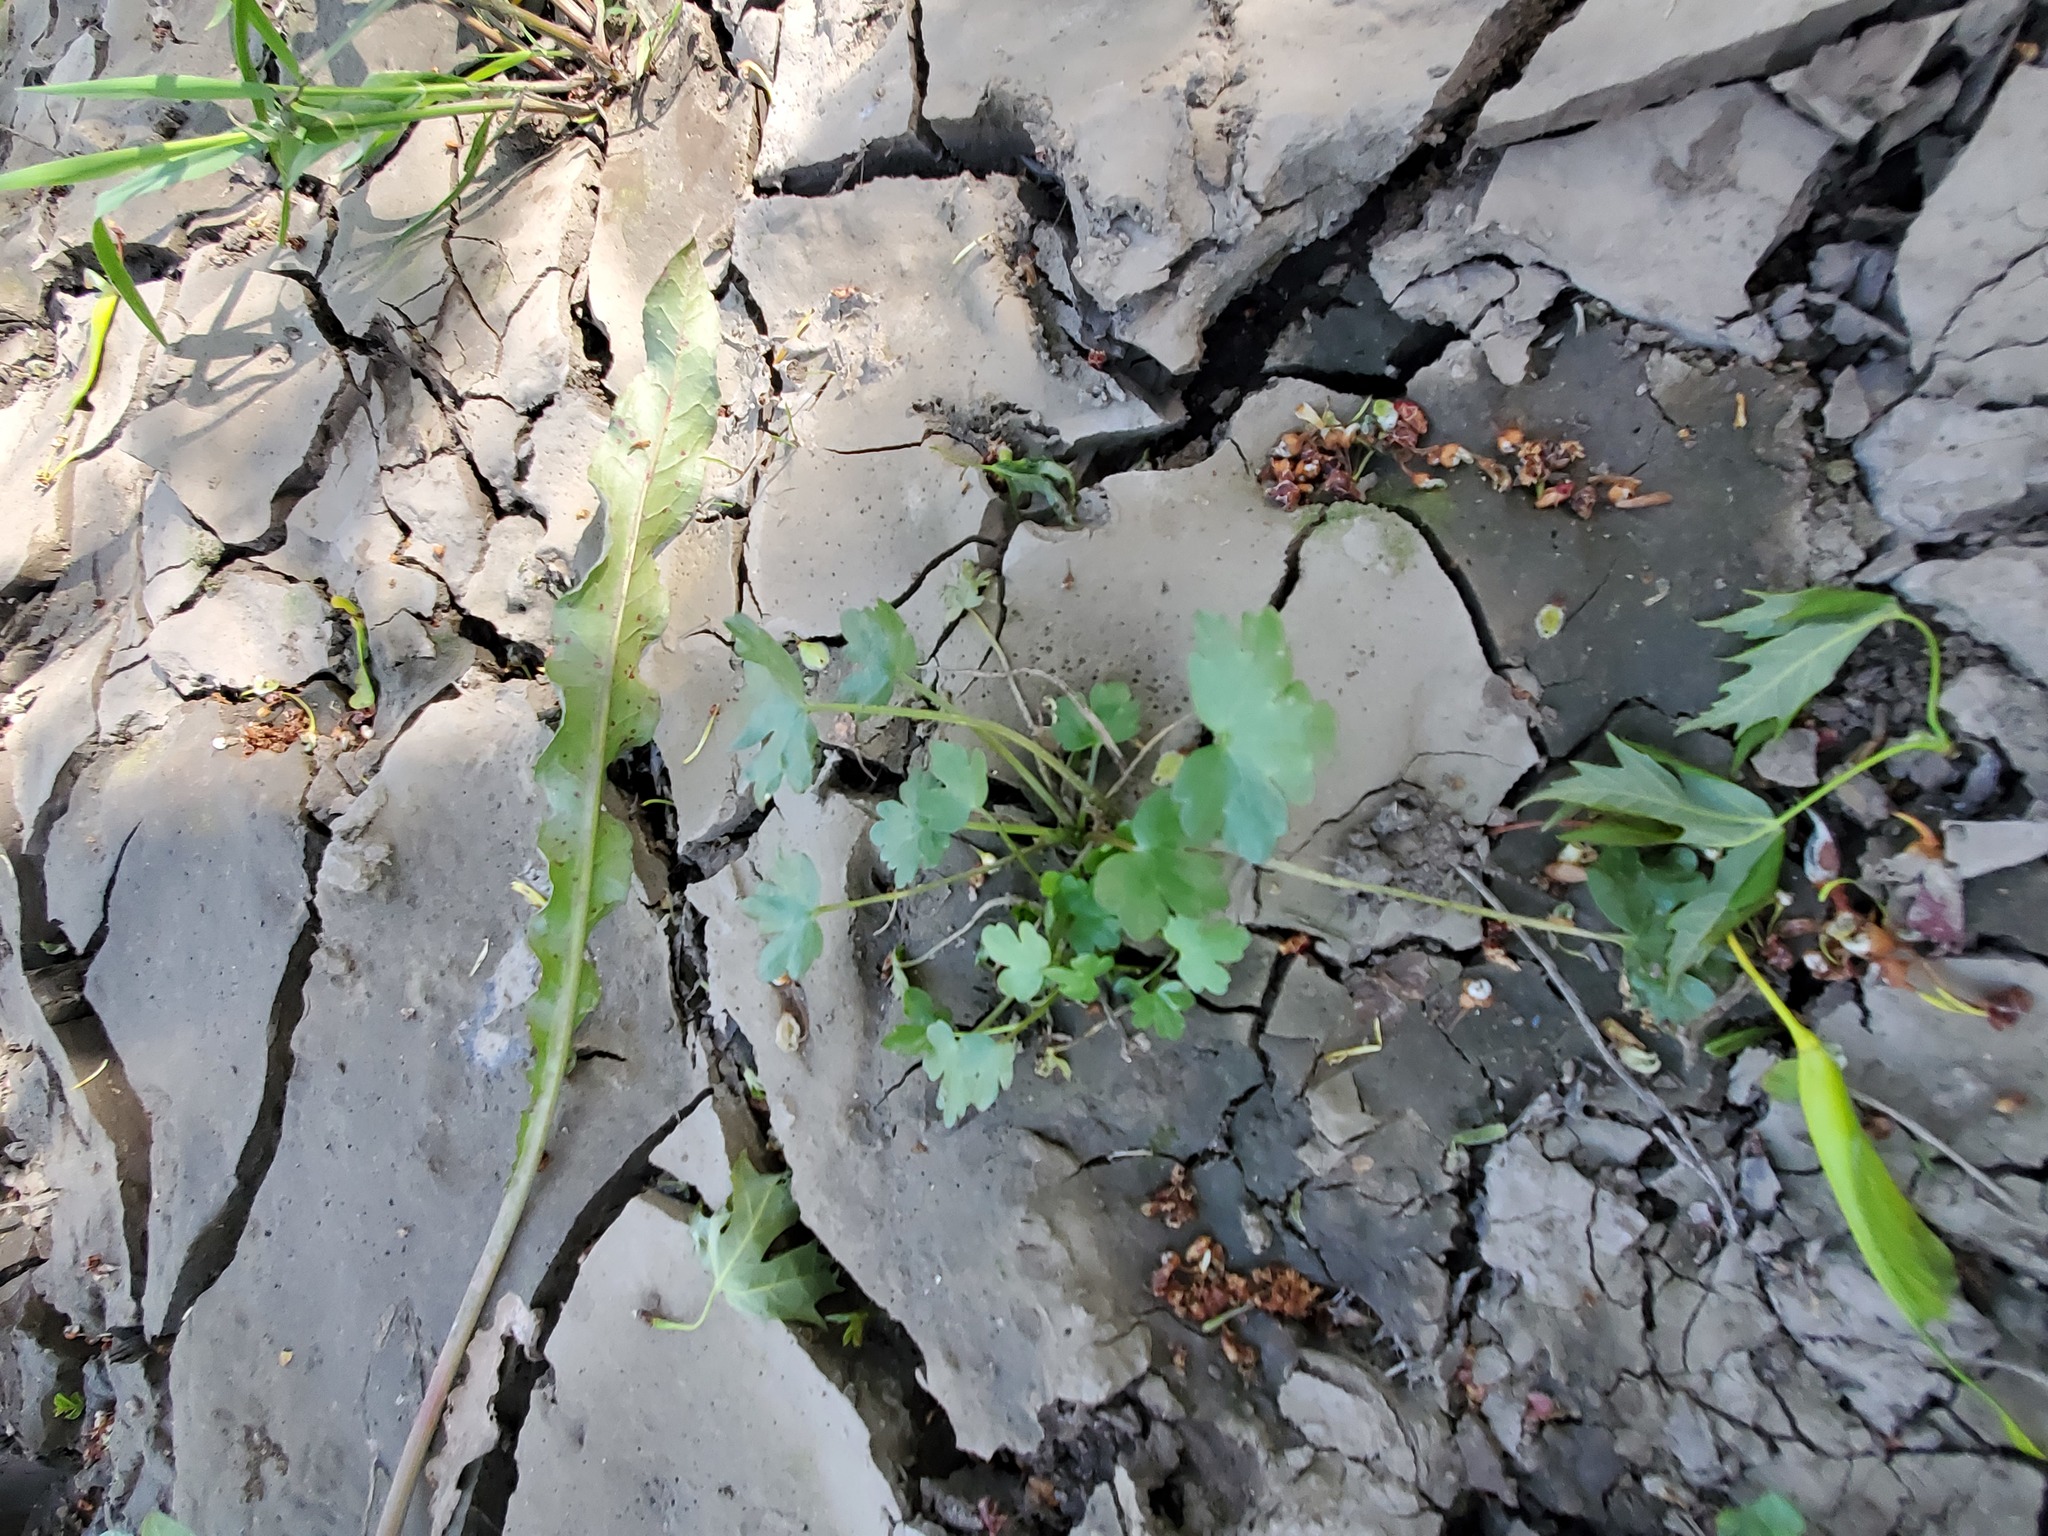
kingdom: Plantae
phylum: Tracheophyta
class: Magnoliopsida
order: Ranunculales
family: Ranunculaceae
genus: Ranunculus
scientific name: Ranunculus sceleratus
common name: Celery-leaved buttercup
